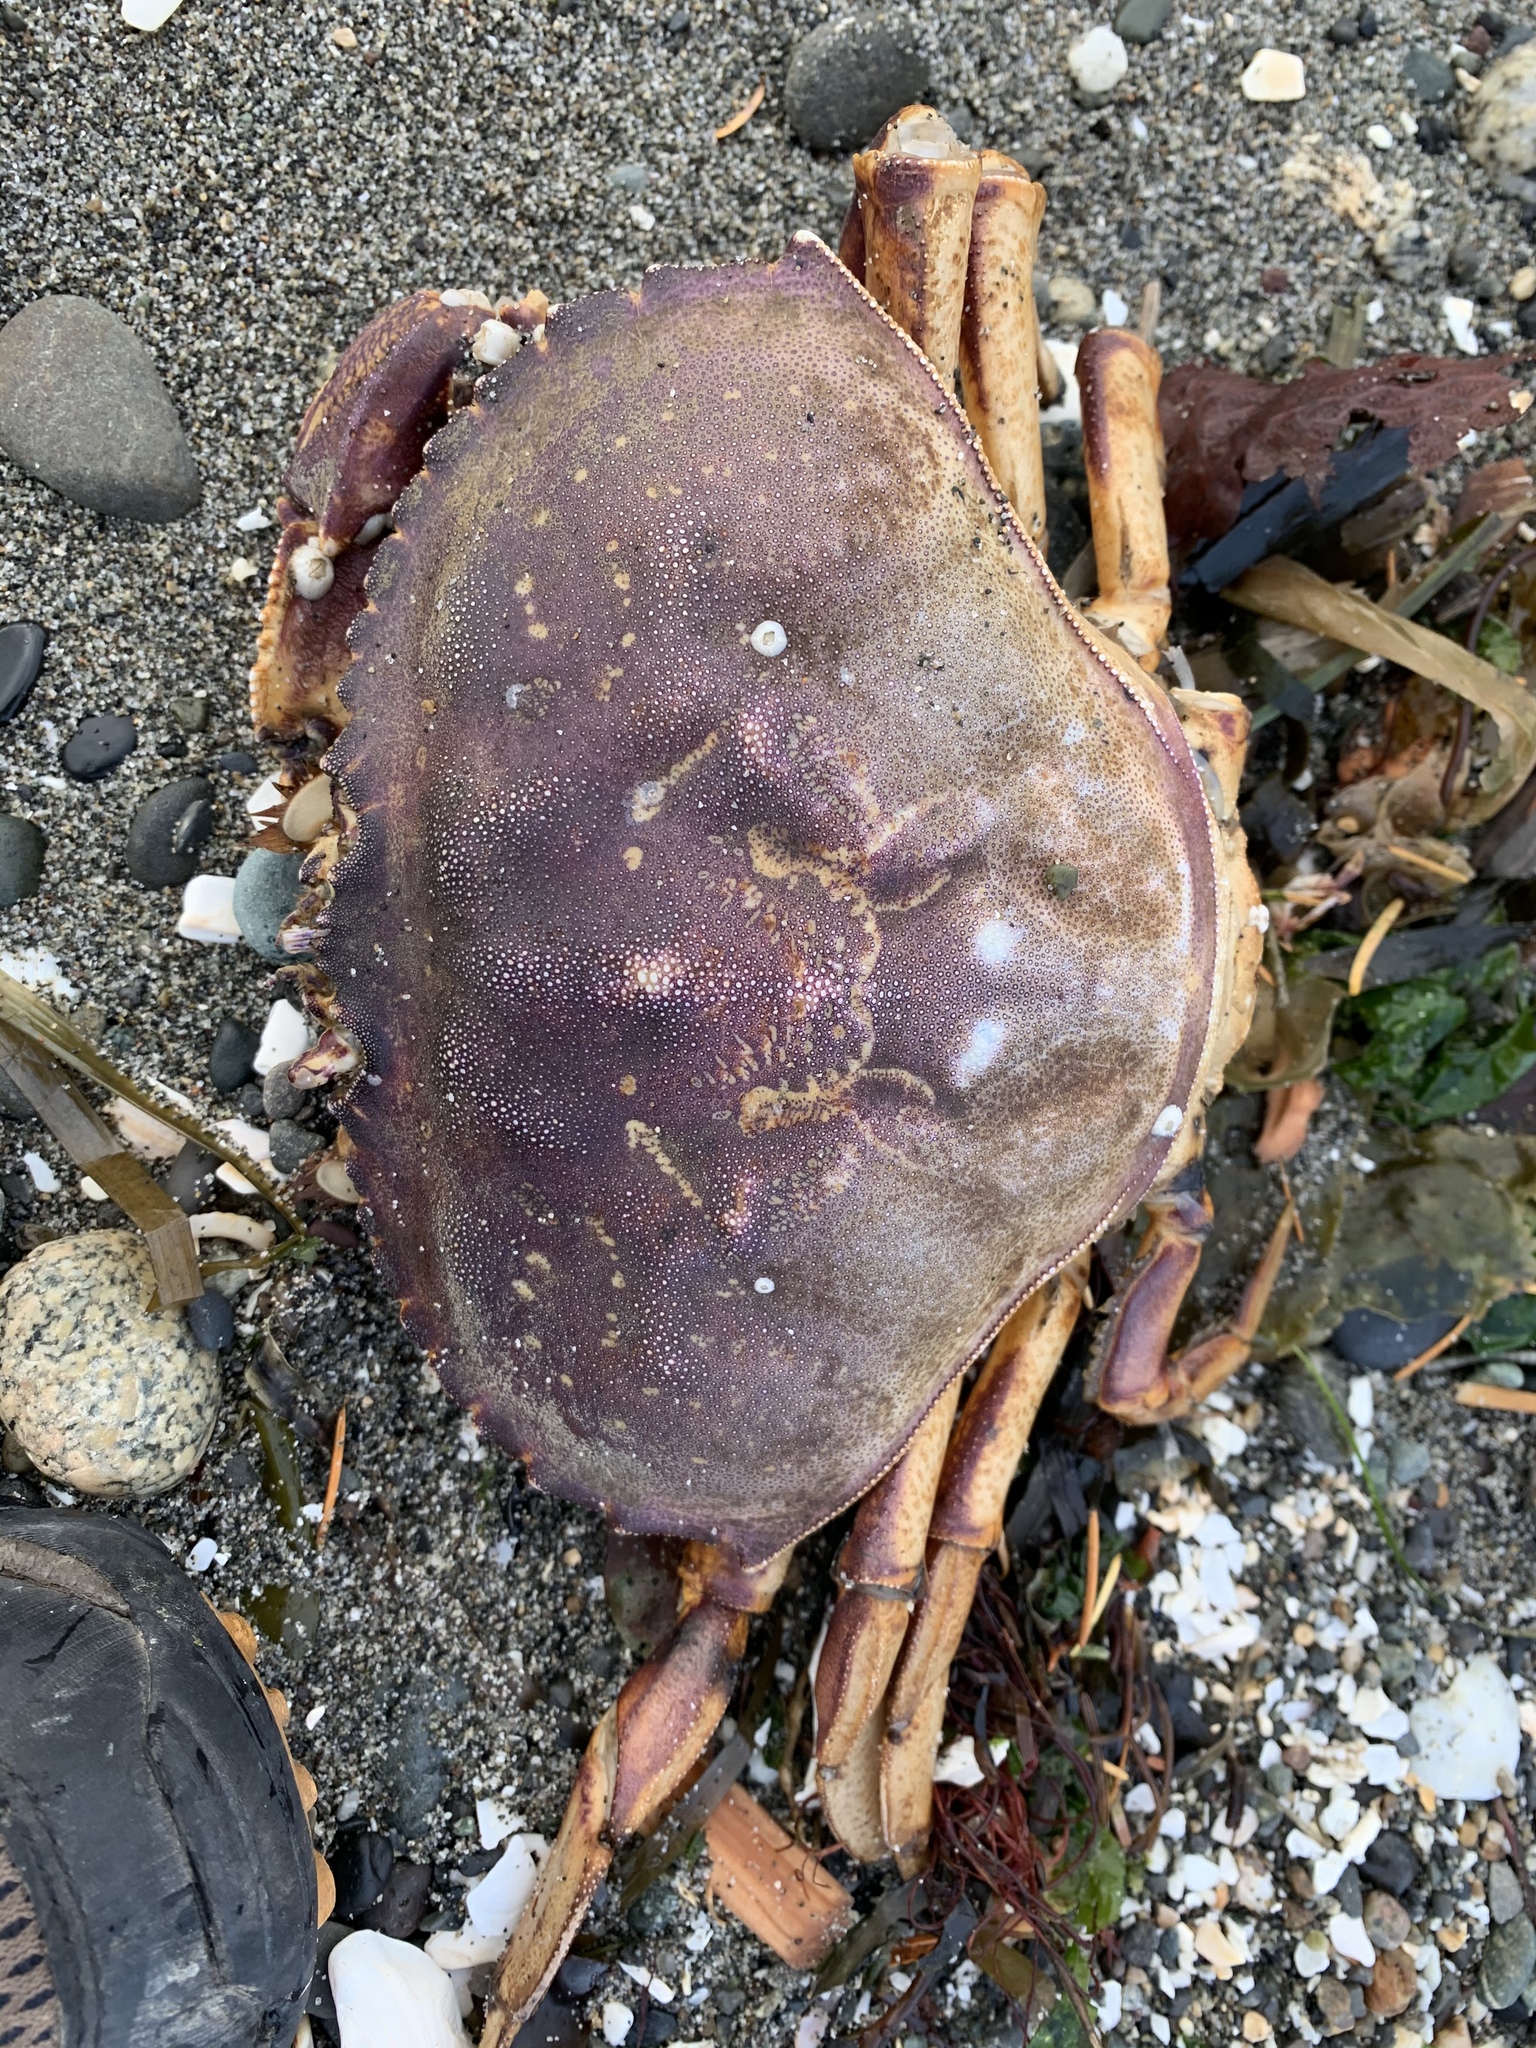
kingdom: Animalia
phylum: Arthropoda
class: Malacostraca
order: Decapoda
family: Cancridae
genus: Metacarcinus
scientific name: Metacarcinus magister
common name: Californian crab
